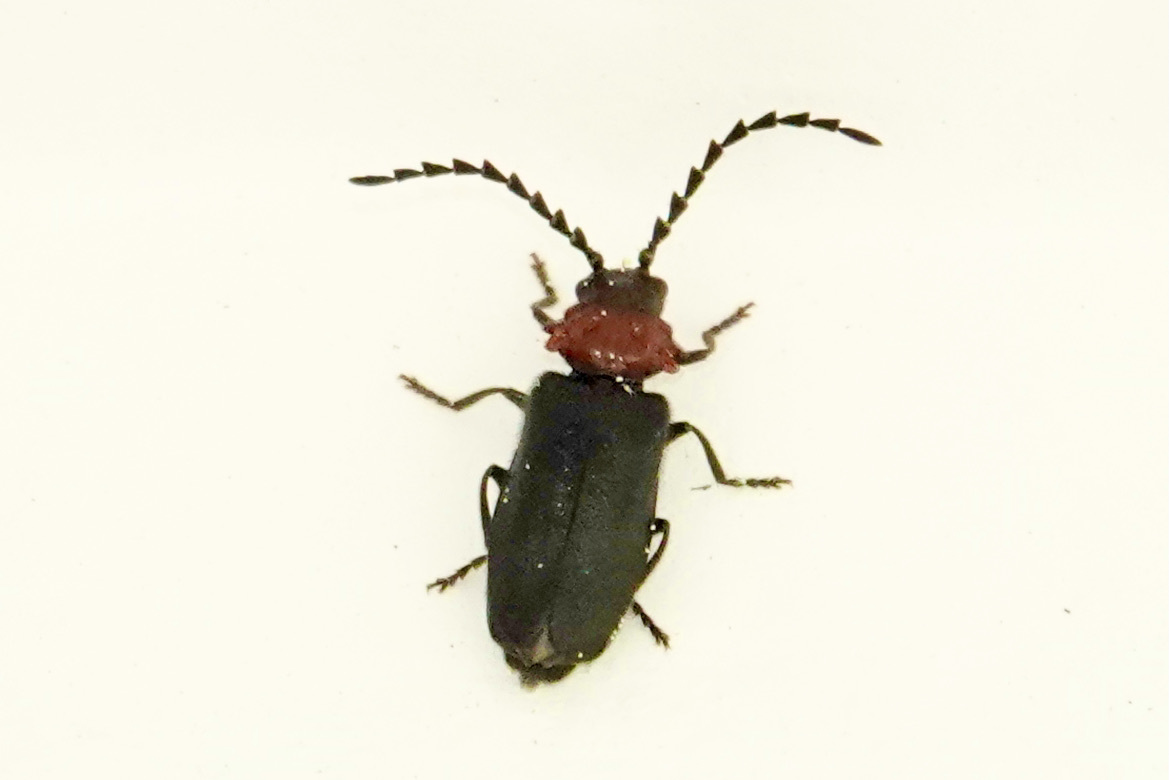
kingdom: Animalia
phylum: Arthropoda
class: Insecta
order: Coleoptera
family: Cantharidae
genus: Ditemnus
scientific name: Ditemnus bidentatus
